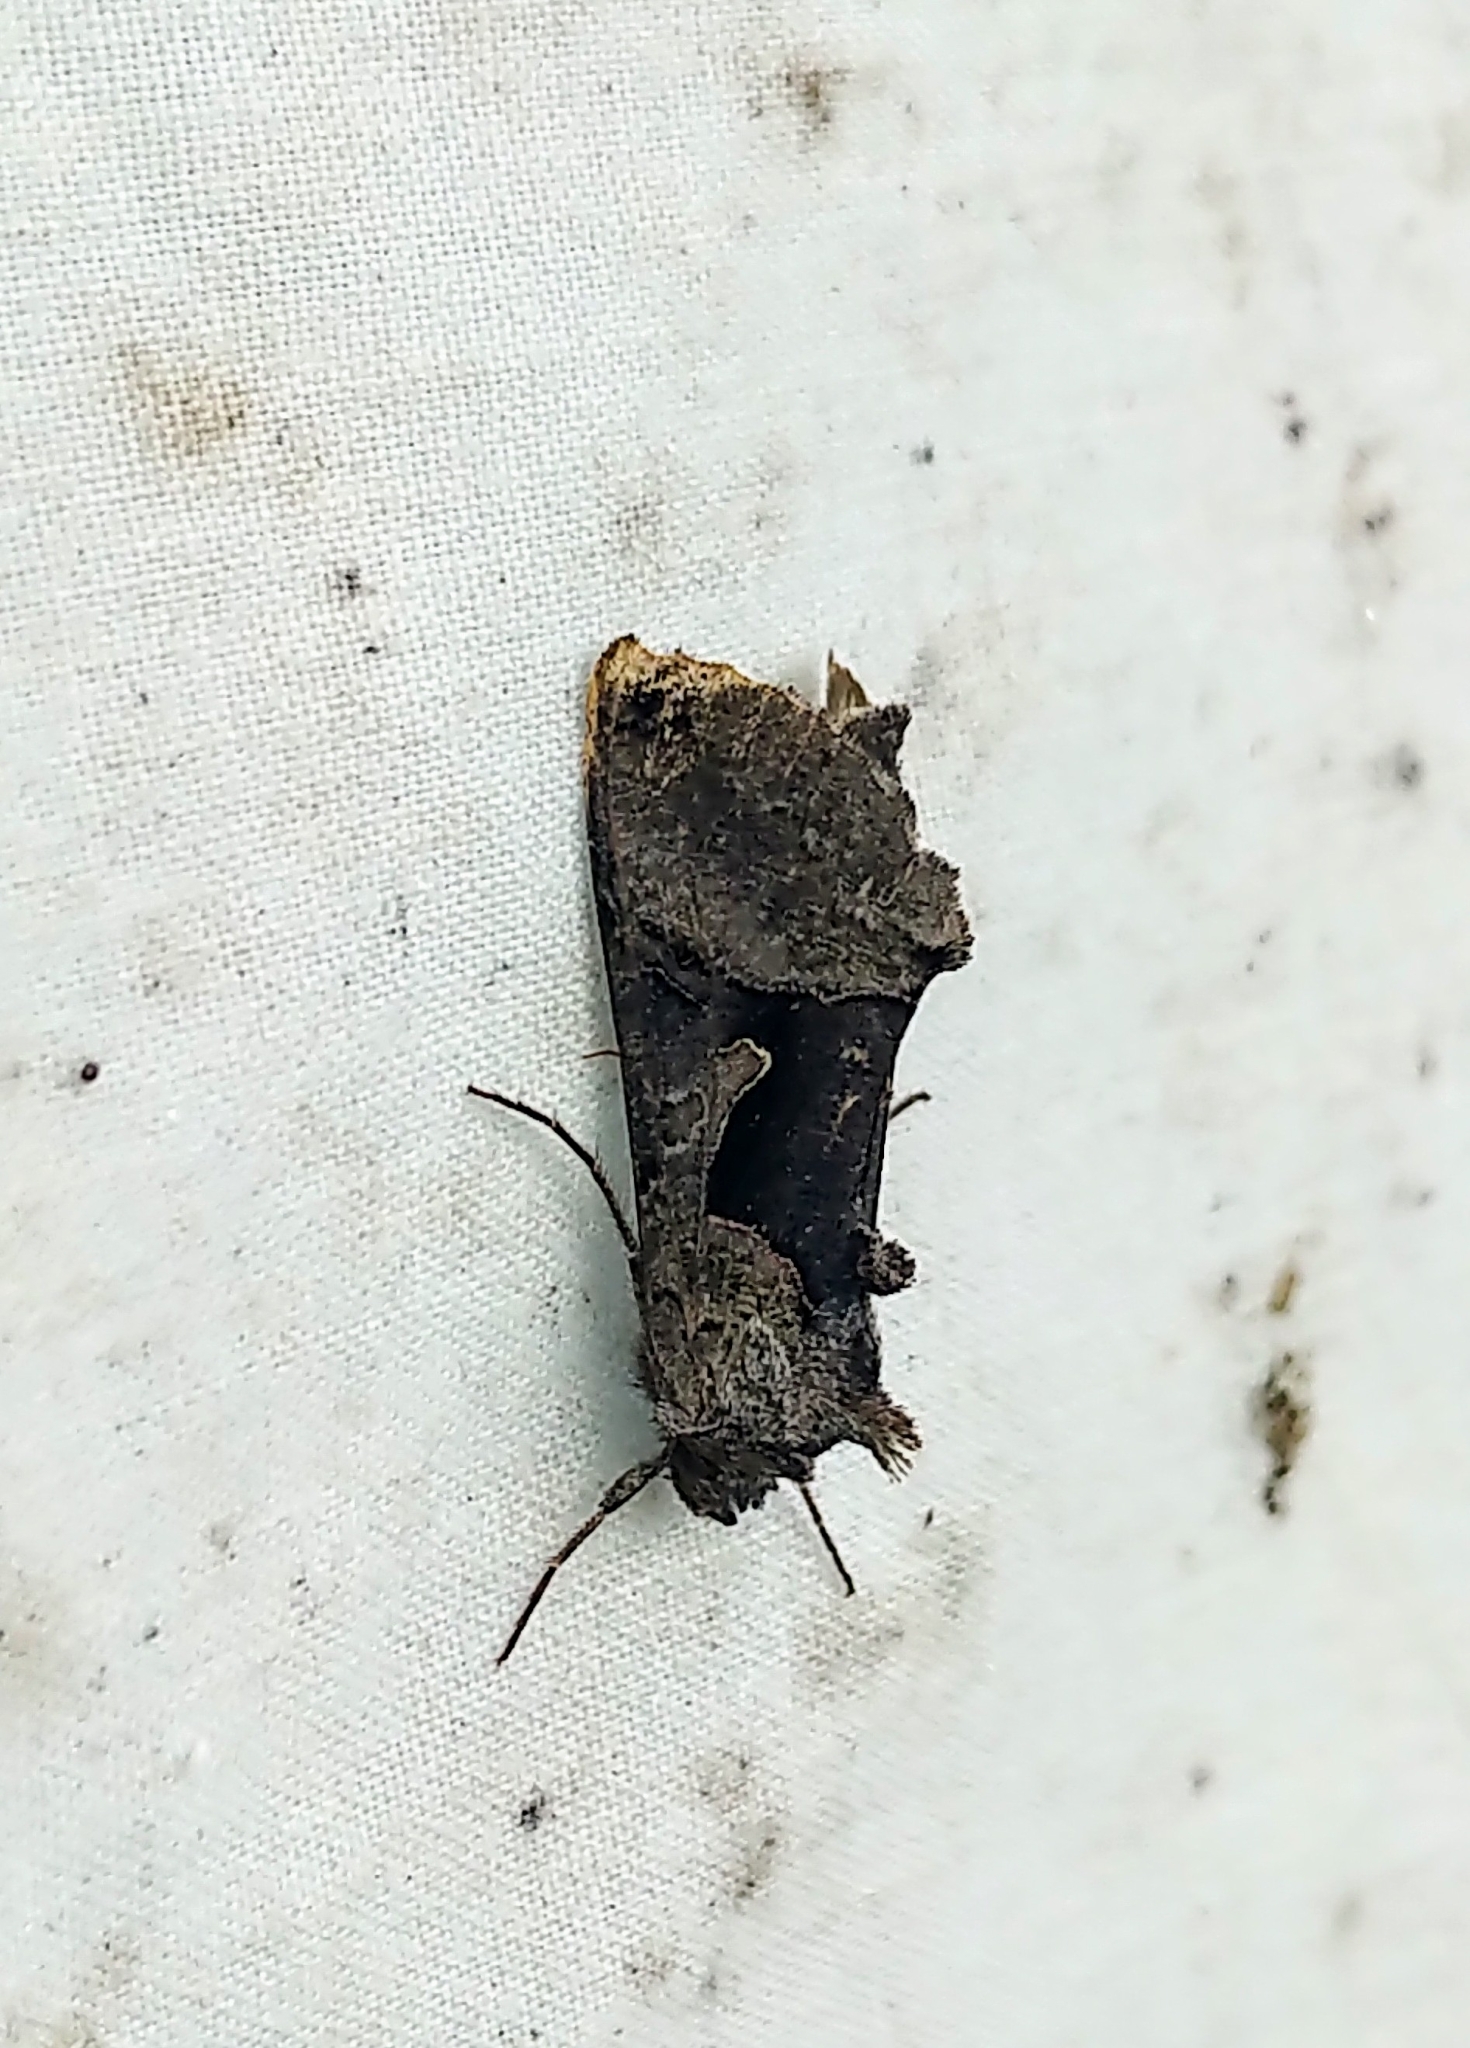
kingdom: Animalia
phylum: Arthropoda
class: Insecta
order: Lepidoptera
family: Noctuidae
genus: Autographa
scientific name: Autographa ampla
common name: Large looper moth
